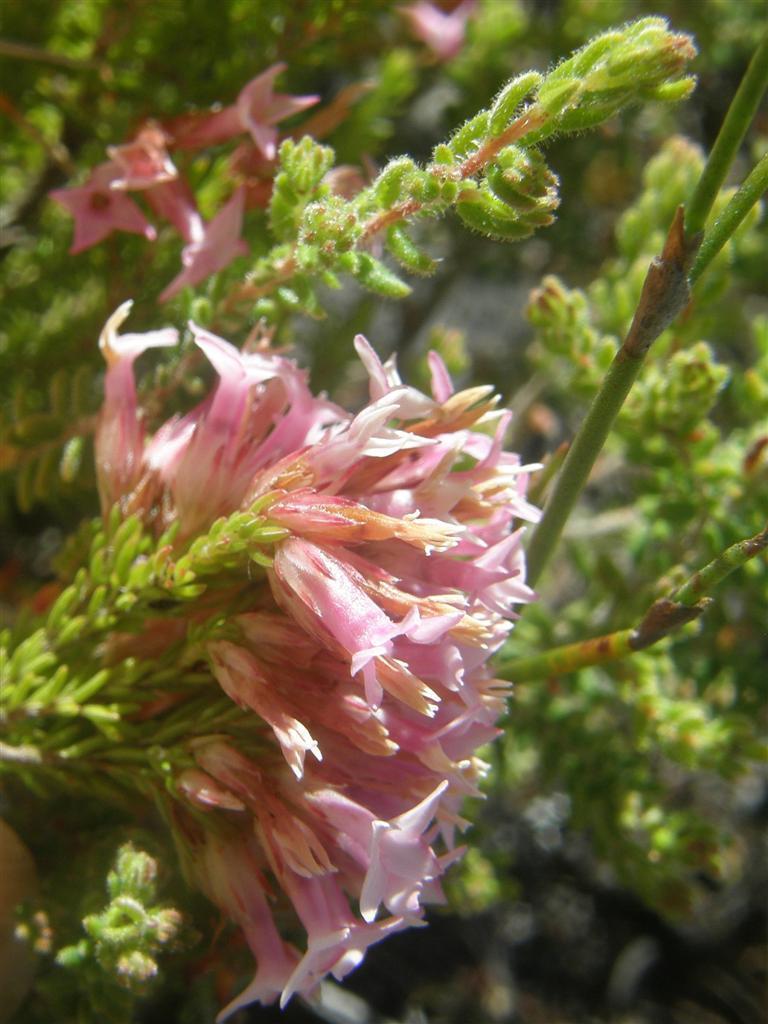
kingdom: Plantae
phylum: Tracheophyta
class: Magnoliopsida
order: Ericales
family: Ericaceae
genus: Erica
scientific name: Erica
